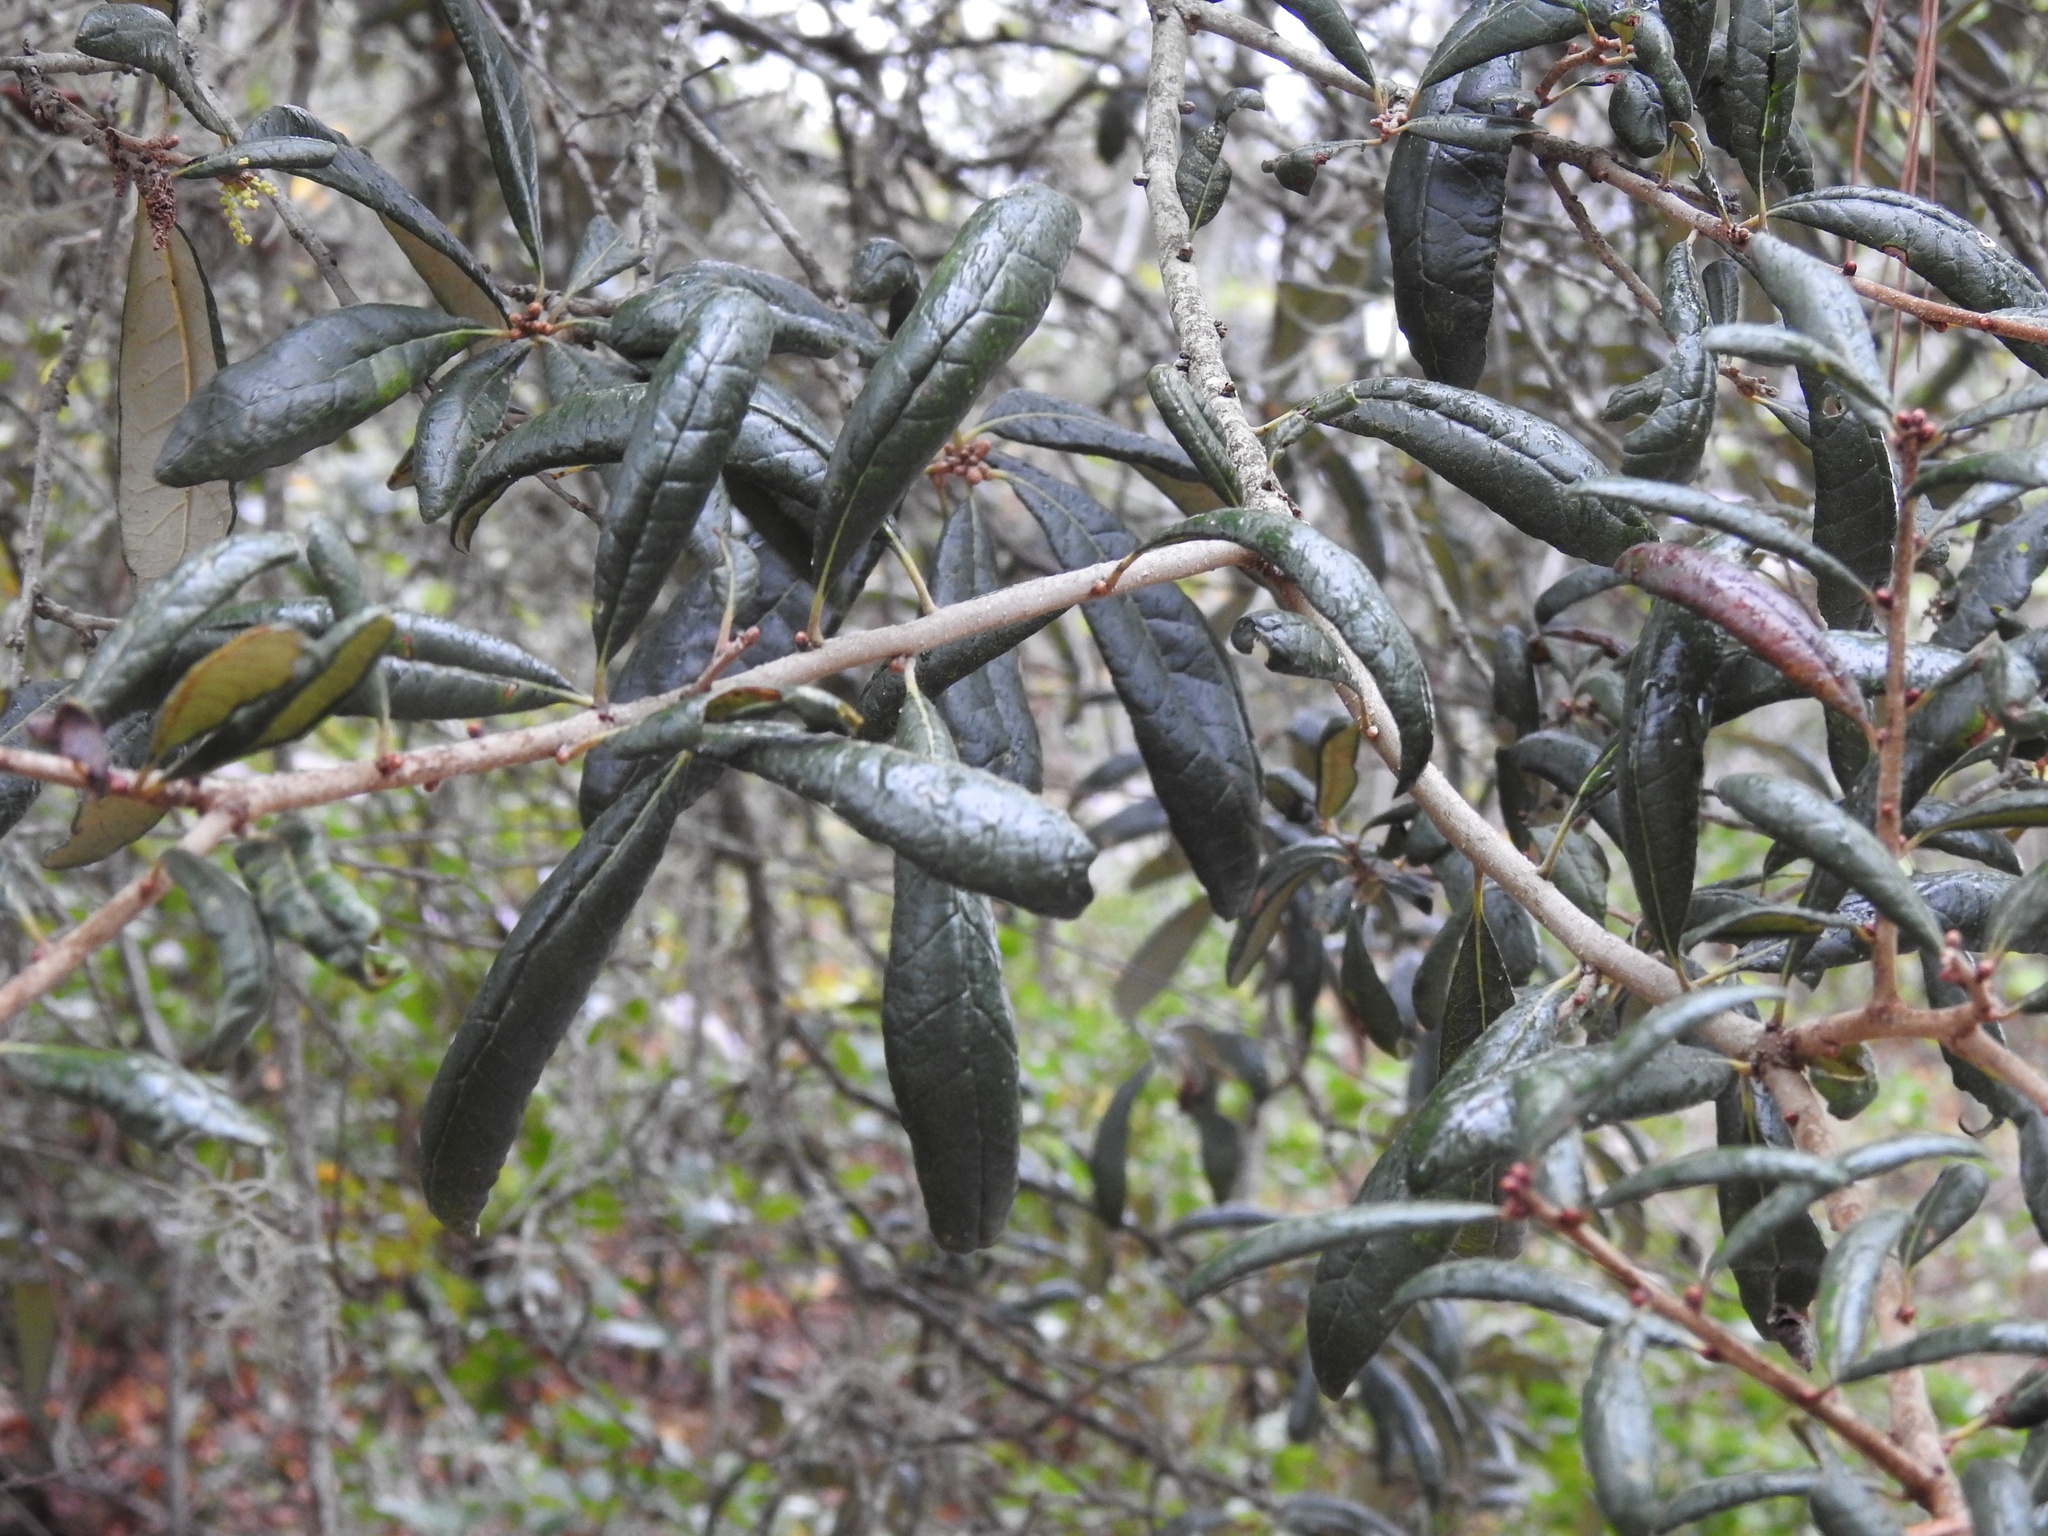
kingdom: Plantae
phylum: Tracheophyta
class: Magnoliopsida
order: Fagales
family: Fagaceae
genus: Quercus
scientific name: Quercus geminata
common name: Sand live oak
